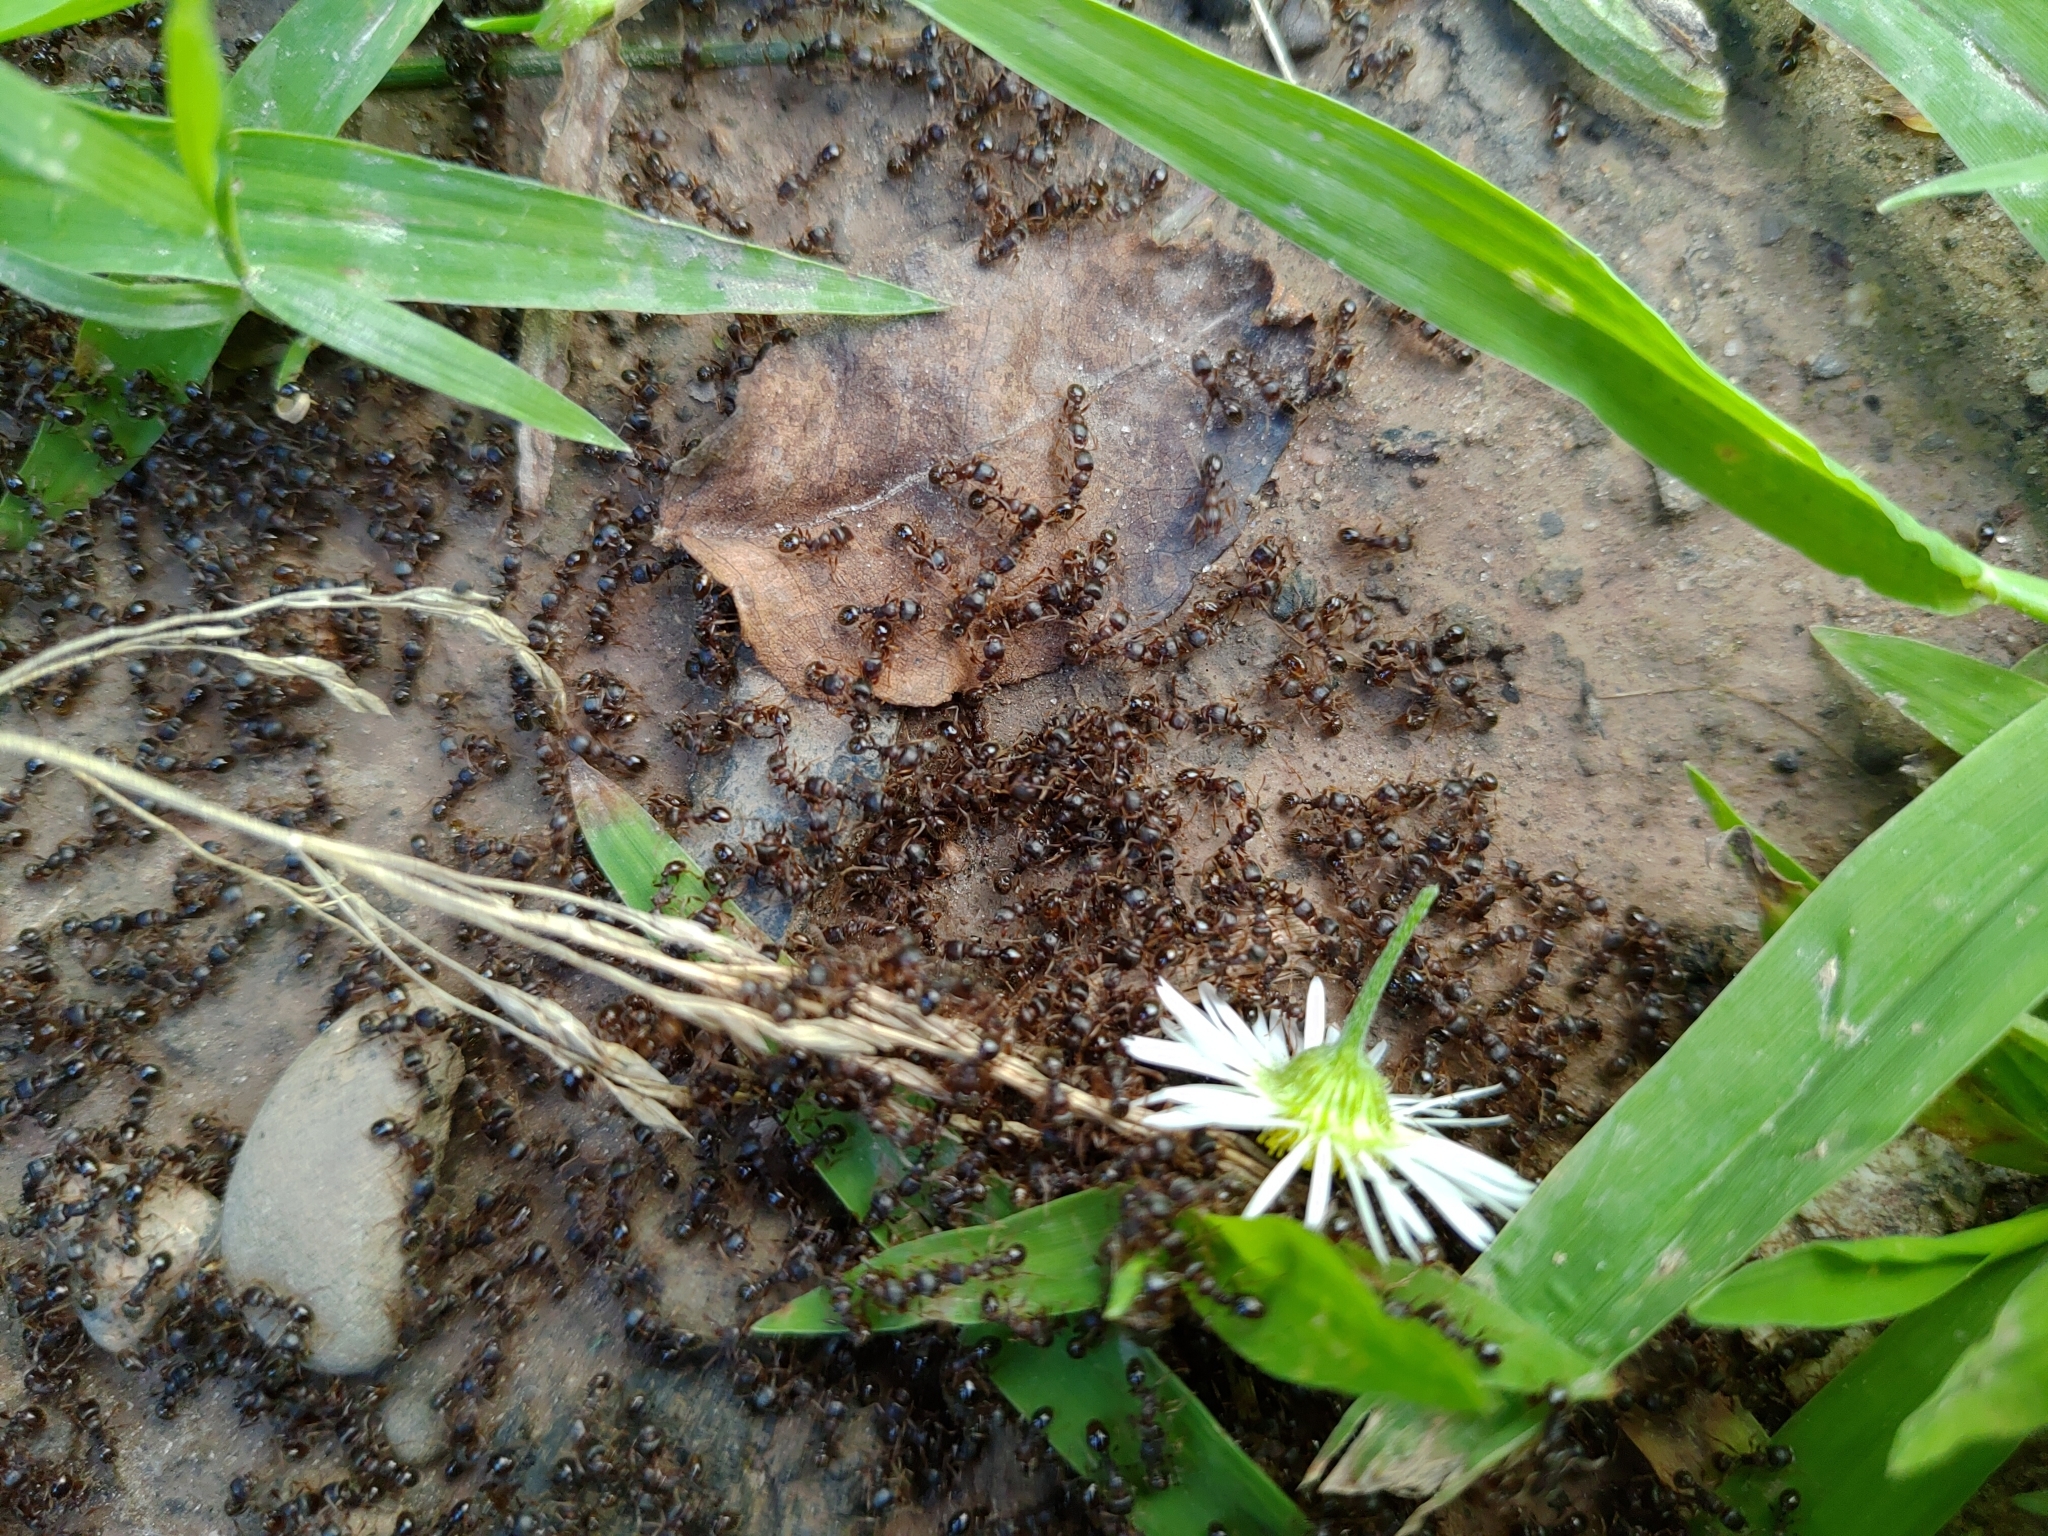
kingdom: Animalia
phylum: Arthropoda
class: Insecta
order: Hymenoptera
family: Formicidae
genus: Tetramorium
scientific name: Tetramorium immigrans
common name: Pavement ant
